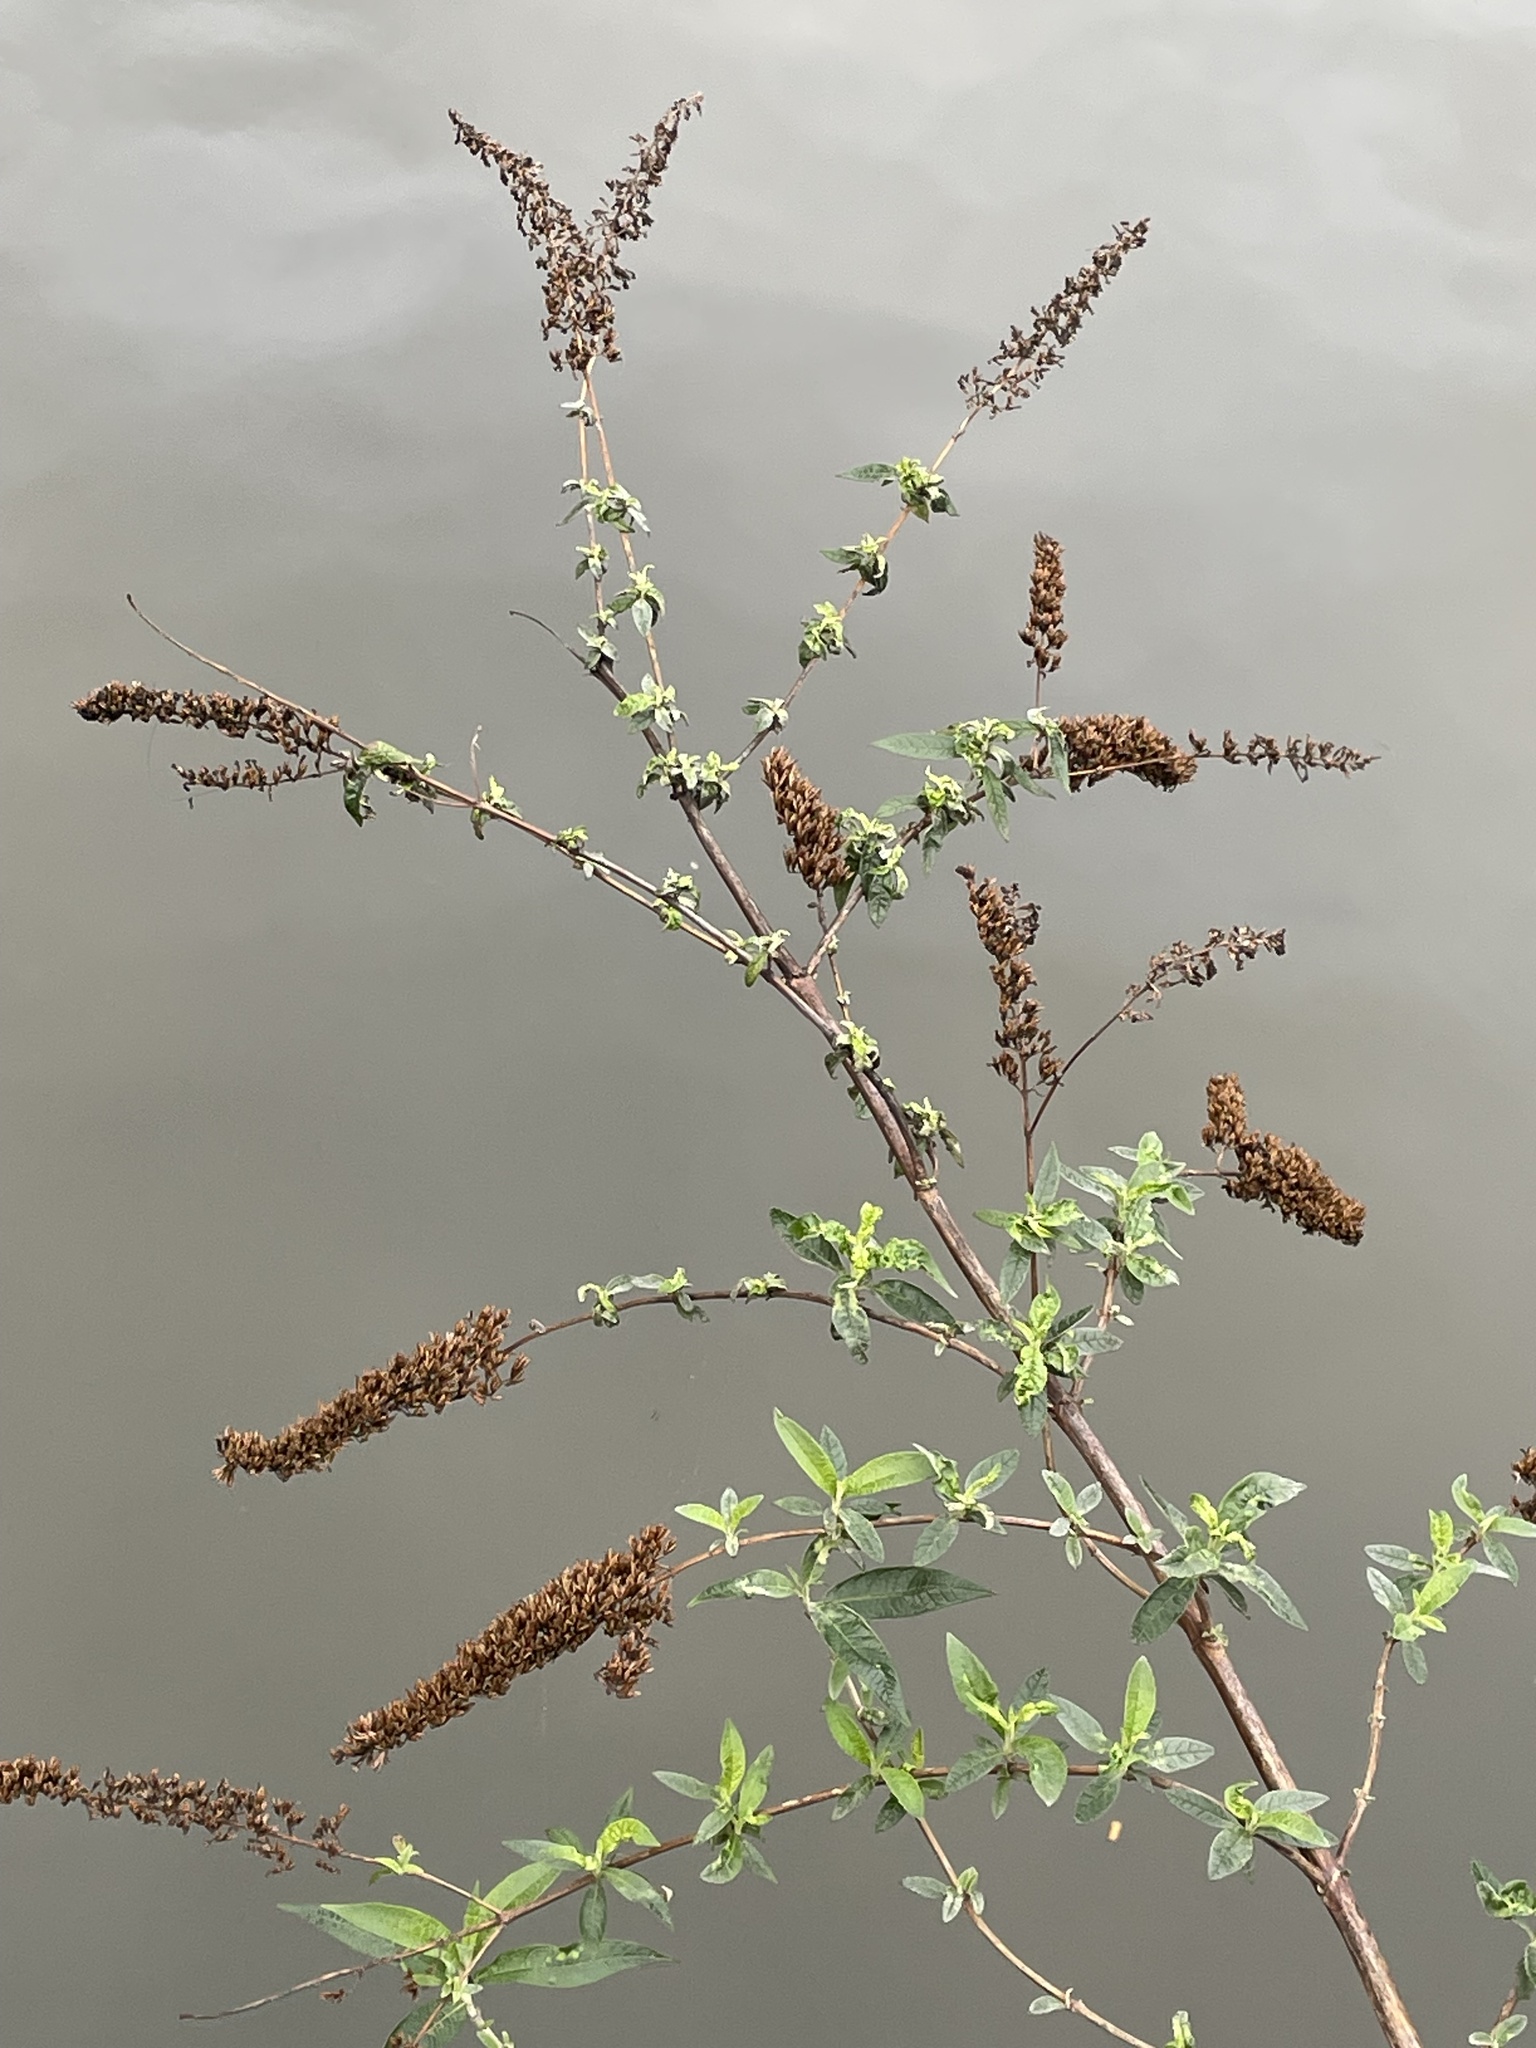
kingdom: Plantae
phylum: Tracheophyta
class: Magnoliopsida
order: Lamiales
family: Scrophulariaceae
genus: Buddleja
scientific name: Buddleja davidii
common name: Butterfly-bush
